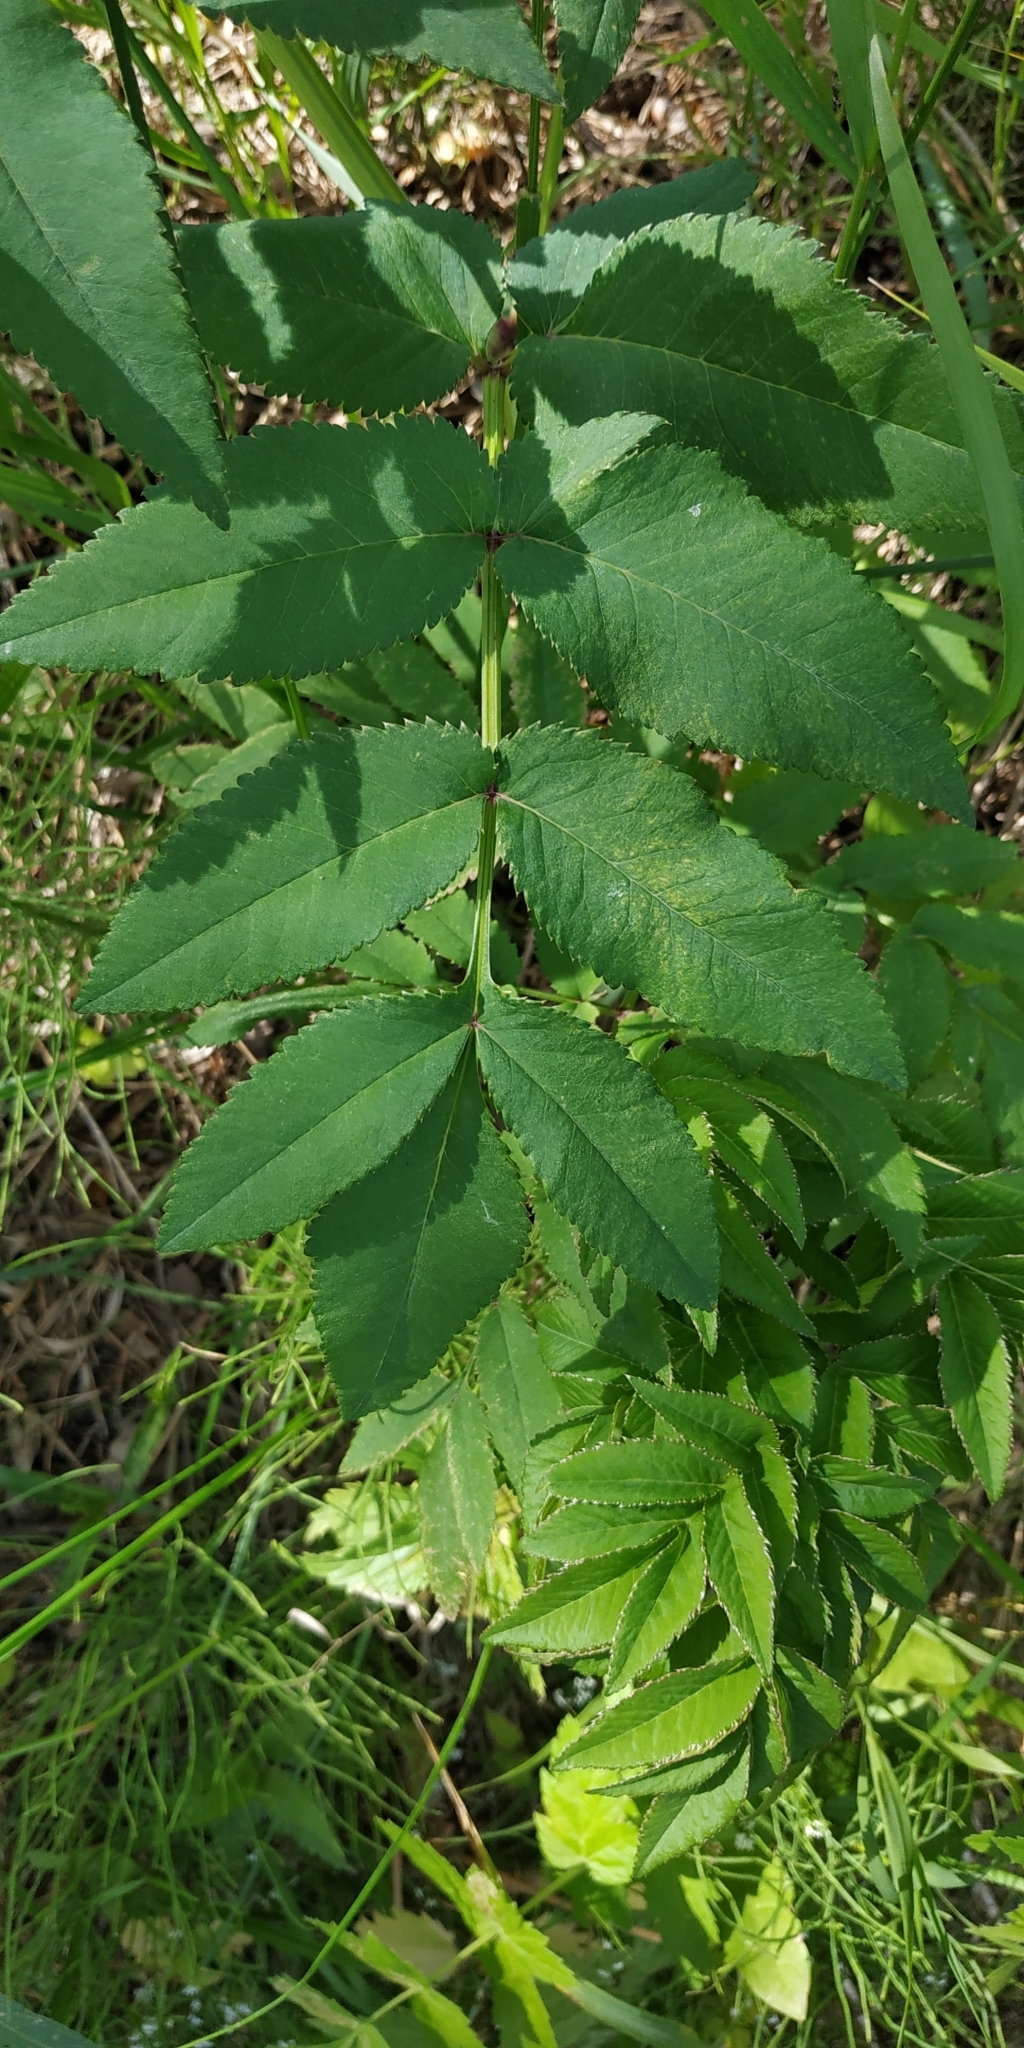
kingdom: Plantae
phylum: Tracheophyta
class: Magnoliopsida
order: Apiales
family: Apiaceae
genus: Angelica
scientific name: Angelica sylvestris
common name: Wild angelica
